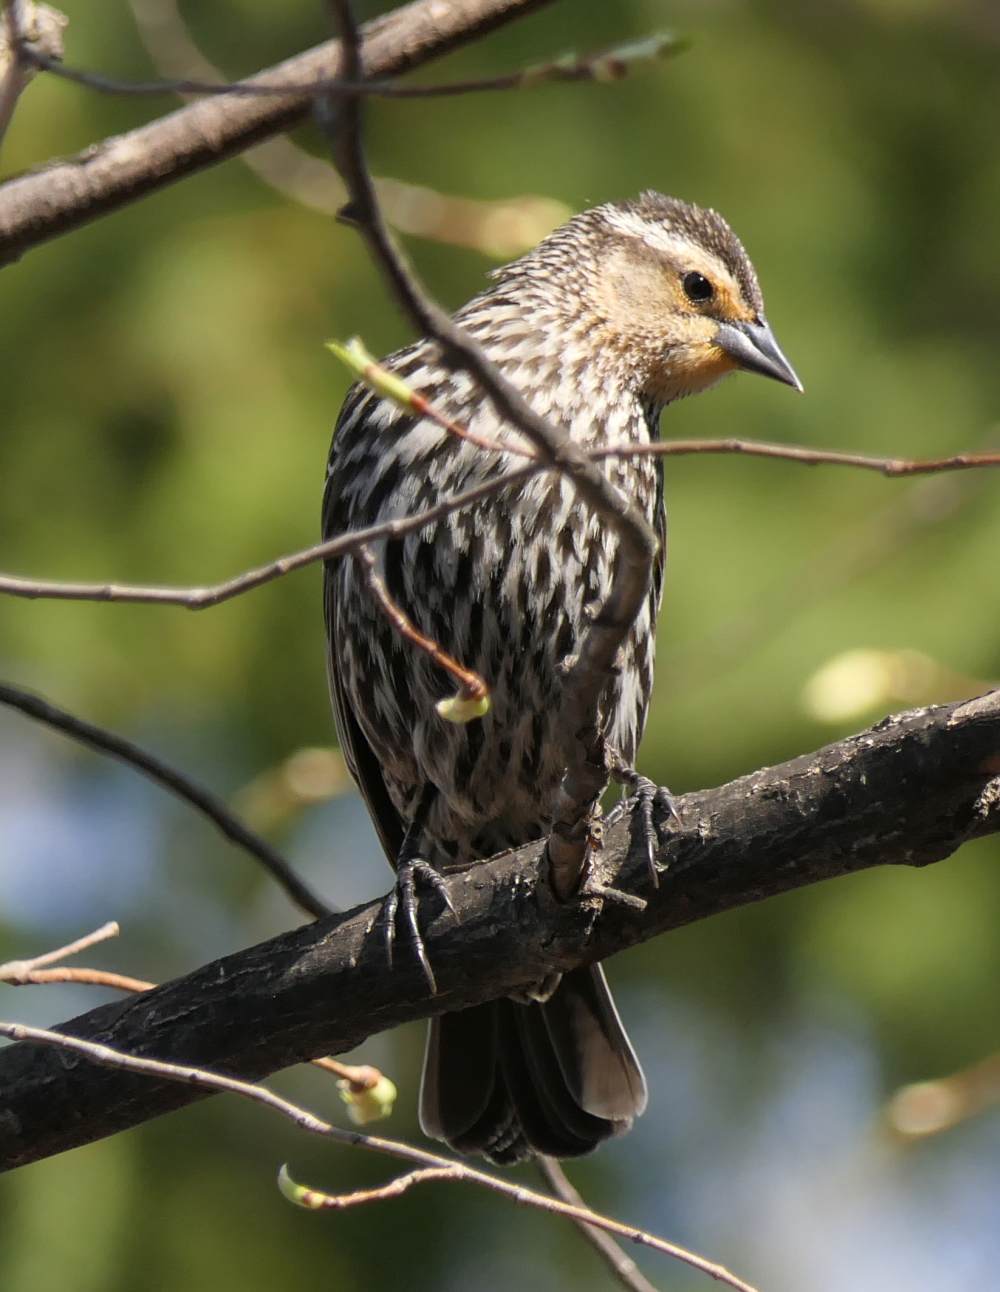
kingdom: Animalia
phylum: Chordata
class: Aves
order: Passeriformes
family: Icteridae
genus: Agelaius
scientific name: Agelaius phoeniceus
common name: Red-winged blackbird
